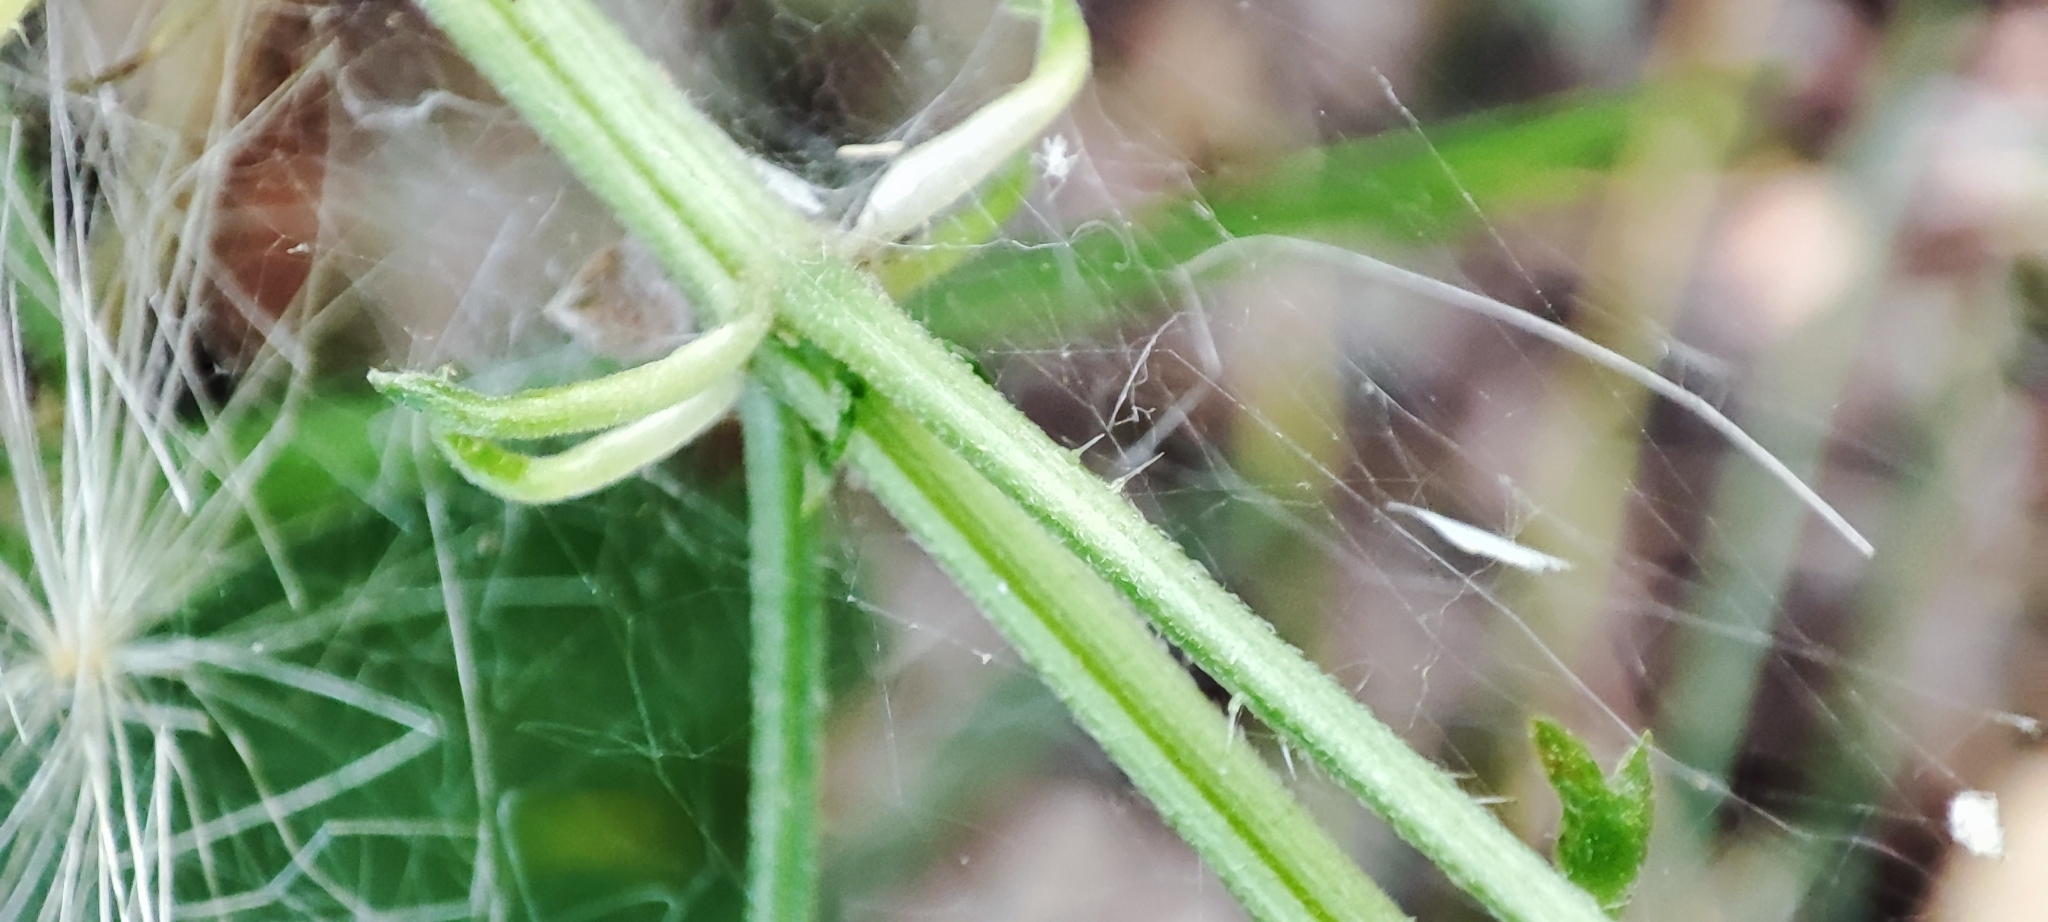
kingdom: Plantae
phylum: Tracheophyta
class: Magnoliopsida
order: Rosales
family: Urticaceae
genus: Urtica
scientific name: Urtica galeopsifolia
